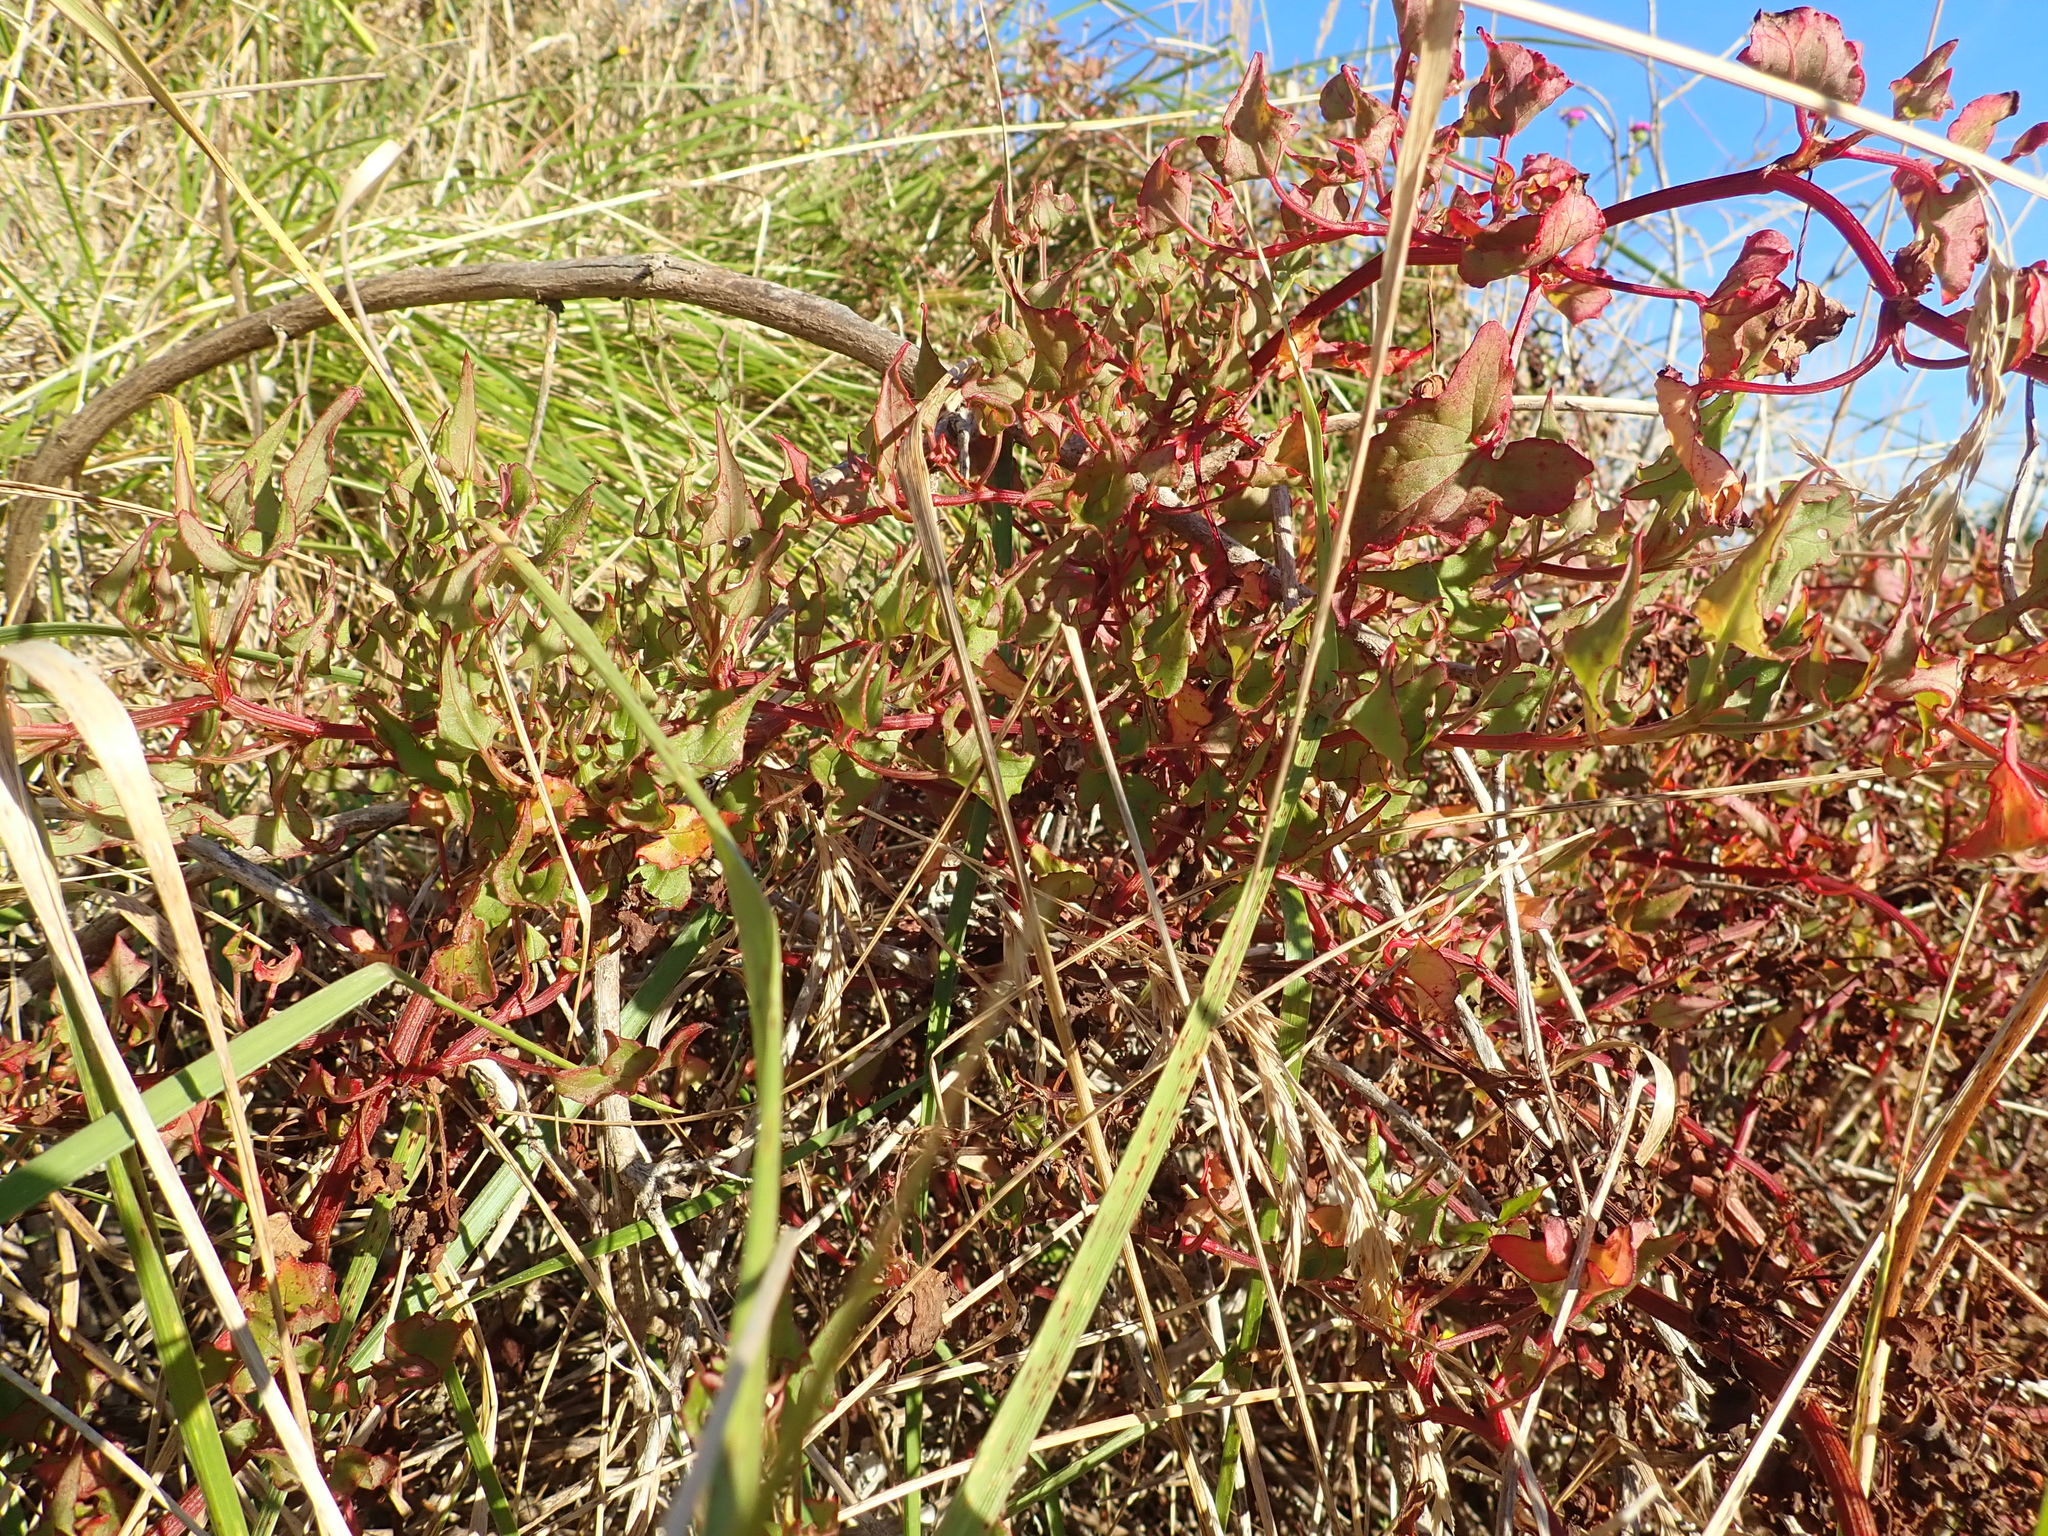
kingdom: Plantae
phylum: Tracheophyta
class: Magnoliopsida
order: Caryophyllales
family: Polygonaceae
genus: Rumex
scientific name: Rumex sagittatus
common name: Climbing dock
